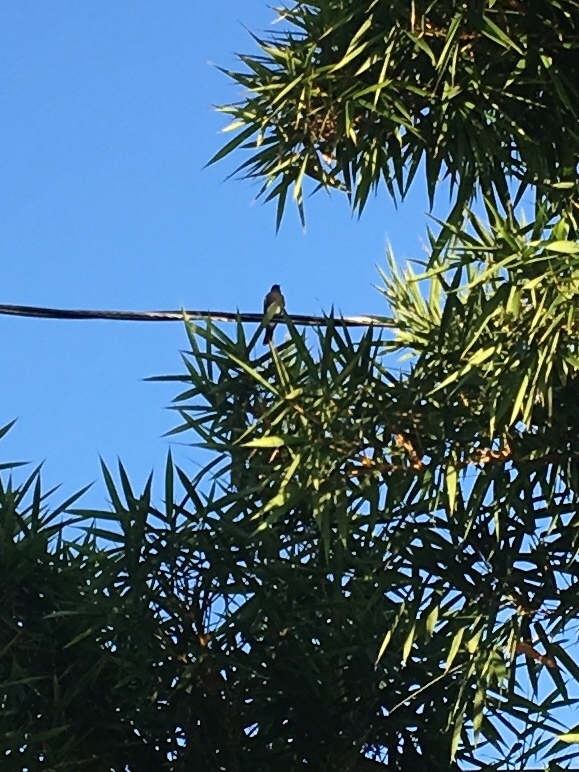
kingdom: Animalia
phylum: Chordata
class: Aves
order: Passeriformes
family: Tyrannidae
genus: Sayornis
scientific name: Sayornis nigricans
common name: Black phoebe
